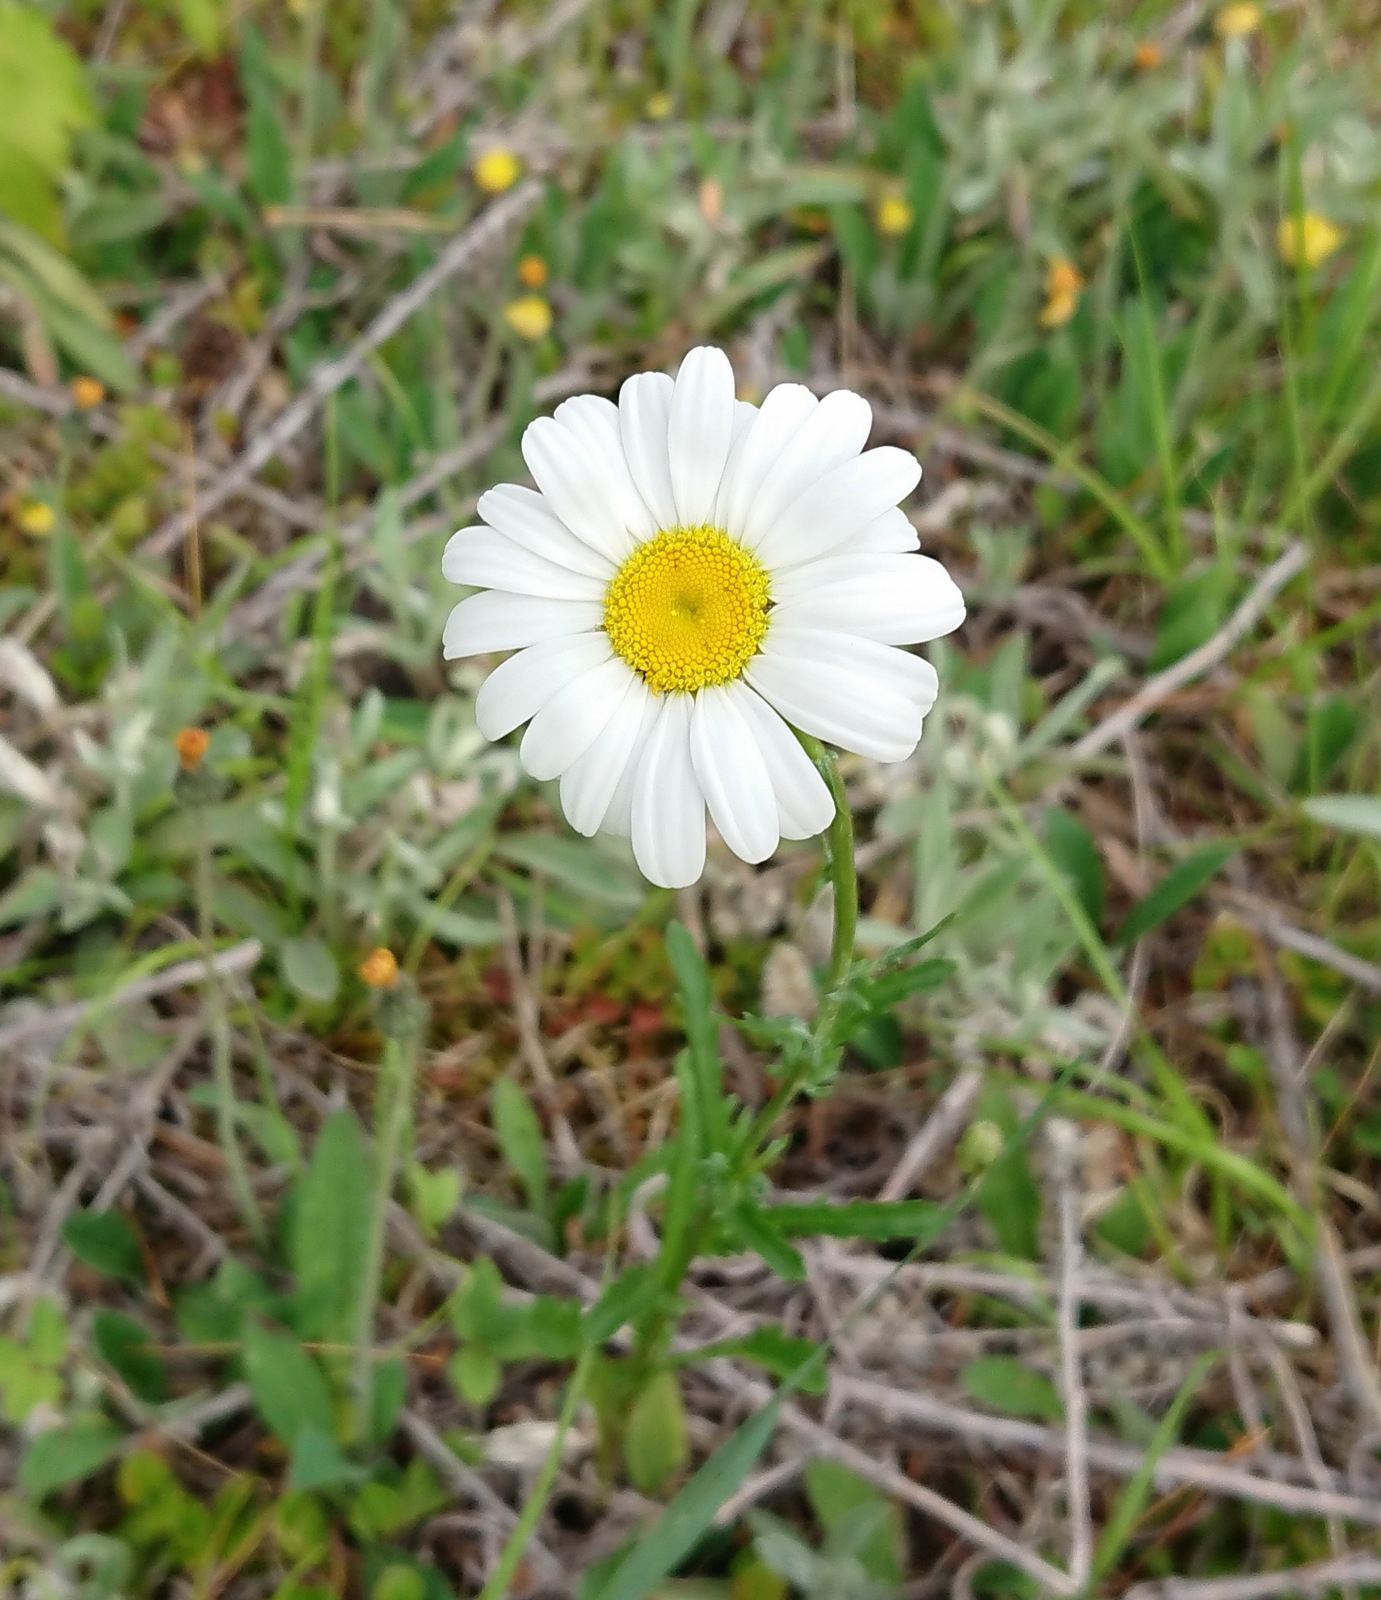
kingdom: Plantae
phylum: Tracheophyta
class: Magnoliopsida
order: Asterales
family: Asteraceae
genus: Leucanthemum
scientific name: Leucanthemum vulgare
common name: Oxeye daisy
